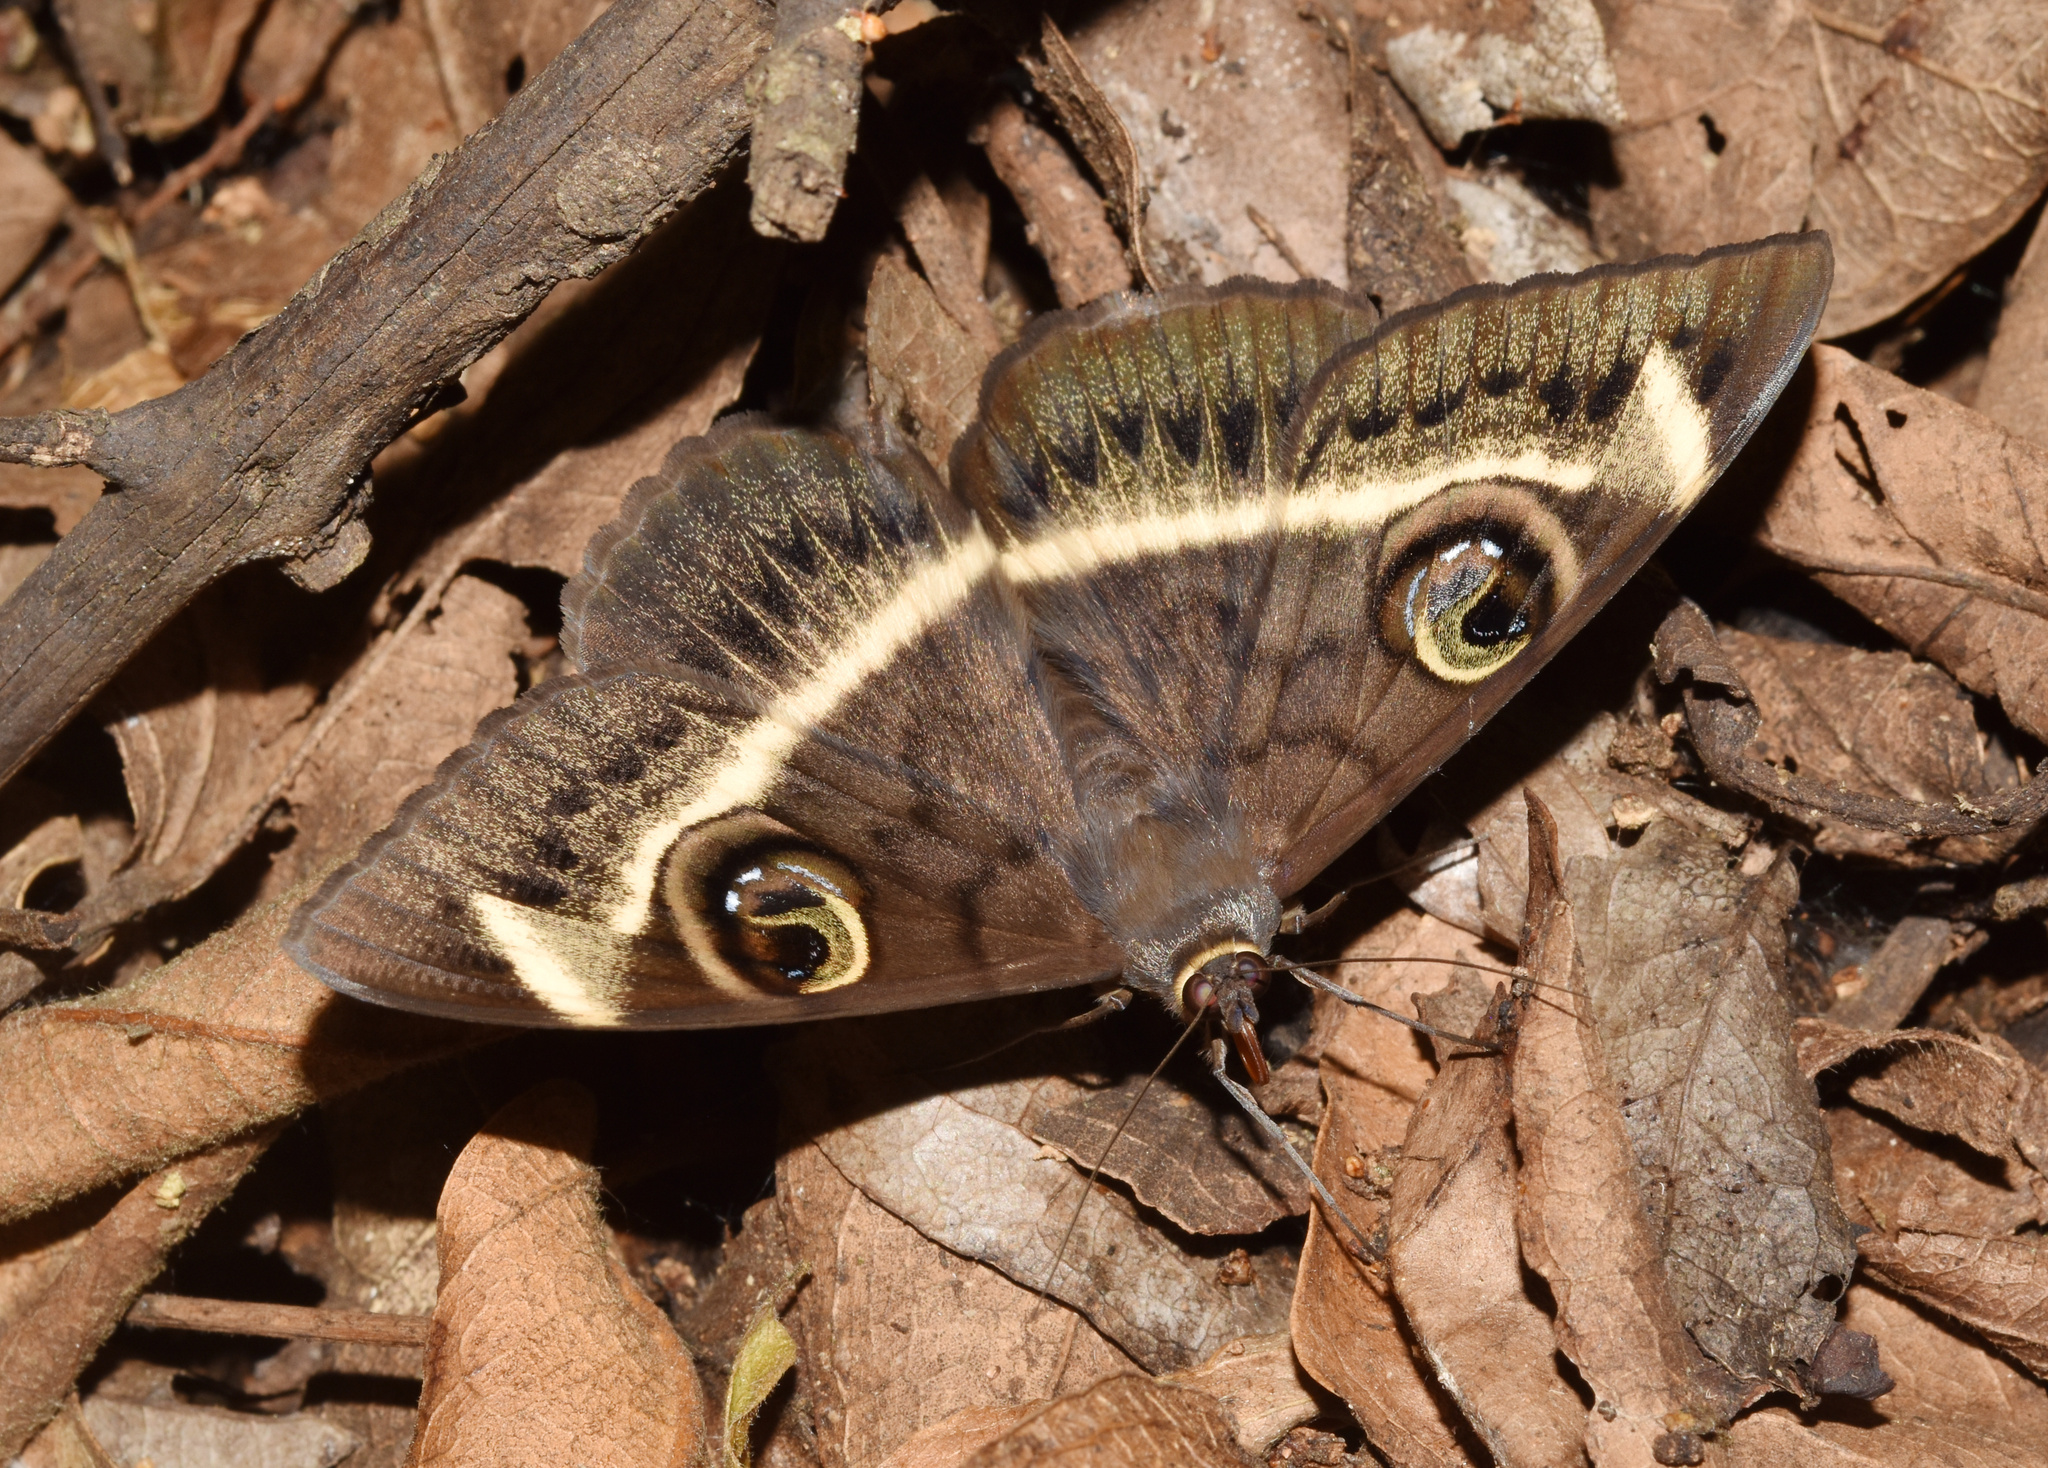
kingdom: Animalia
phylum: Arthropoda
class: Insecta
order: Lepidoptera
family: Erebidae
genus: Cyligramma
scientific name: Cyligramma latona
